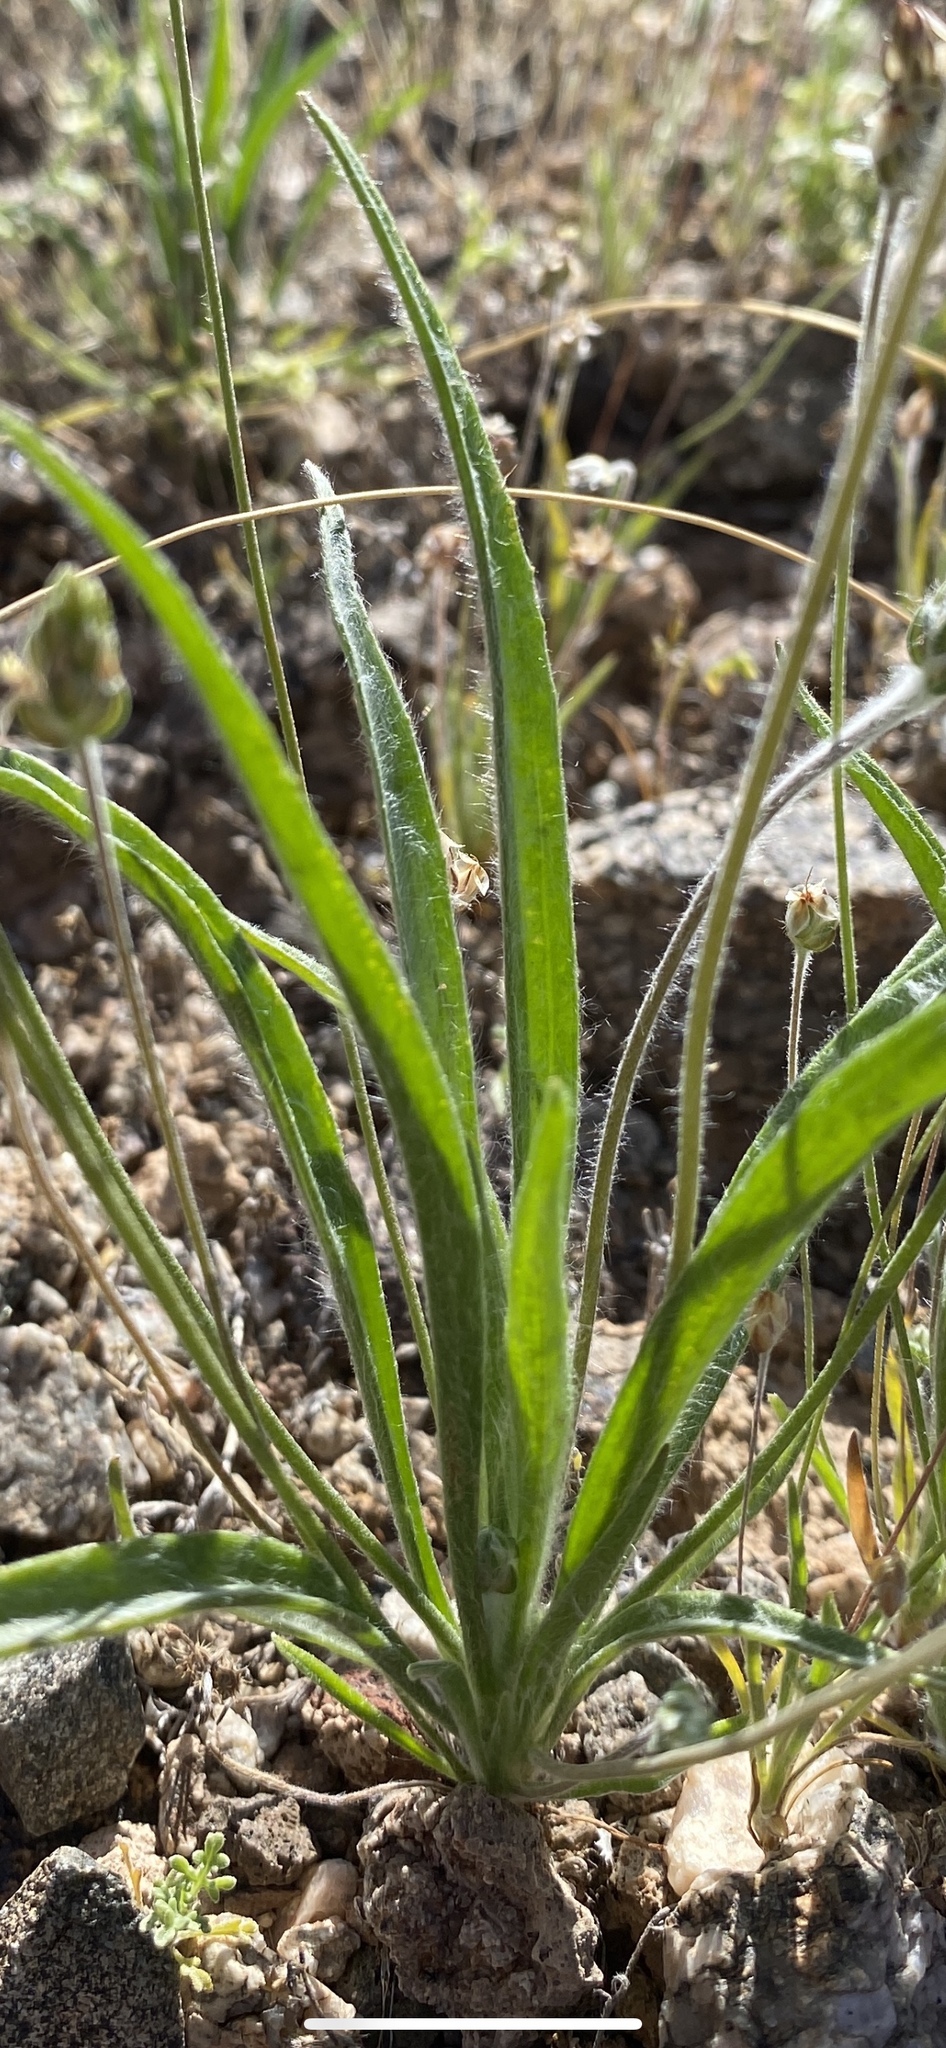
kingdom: Plantae
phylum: Tracheophyta
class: Magnoliopsida
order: Lamiales
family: Plantaginaceae
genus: Plantago
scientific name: Plantago ovata
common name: Blond plantain
